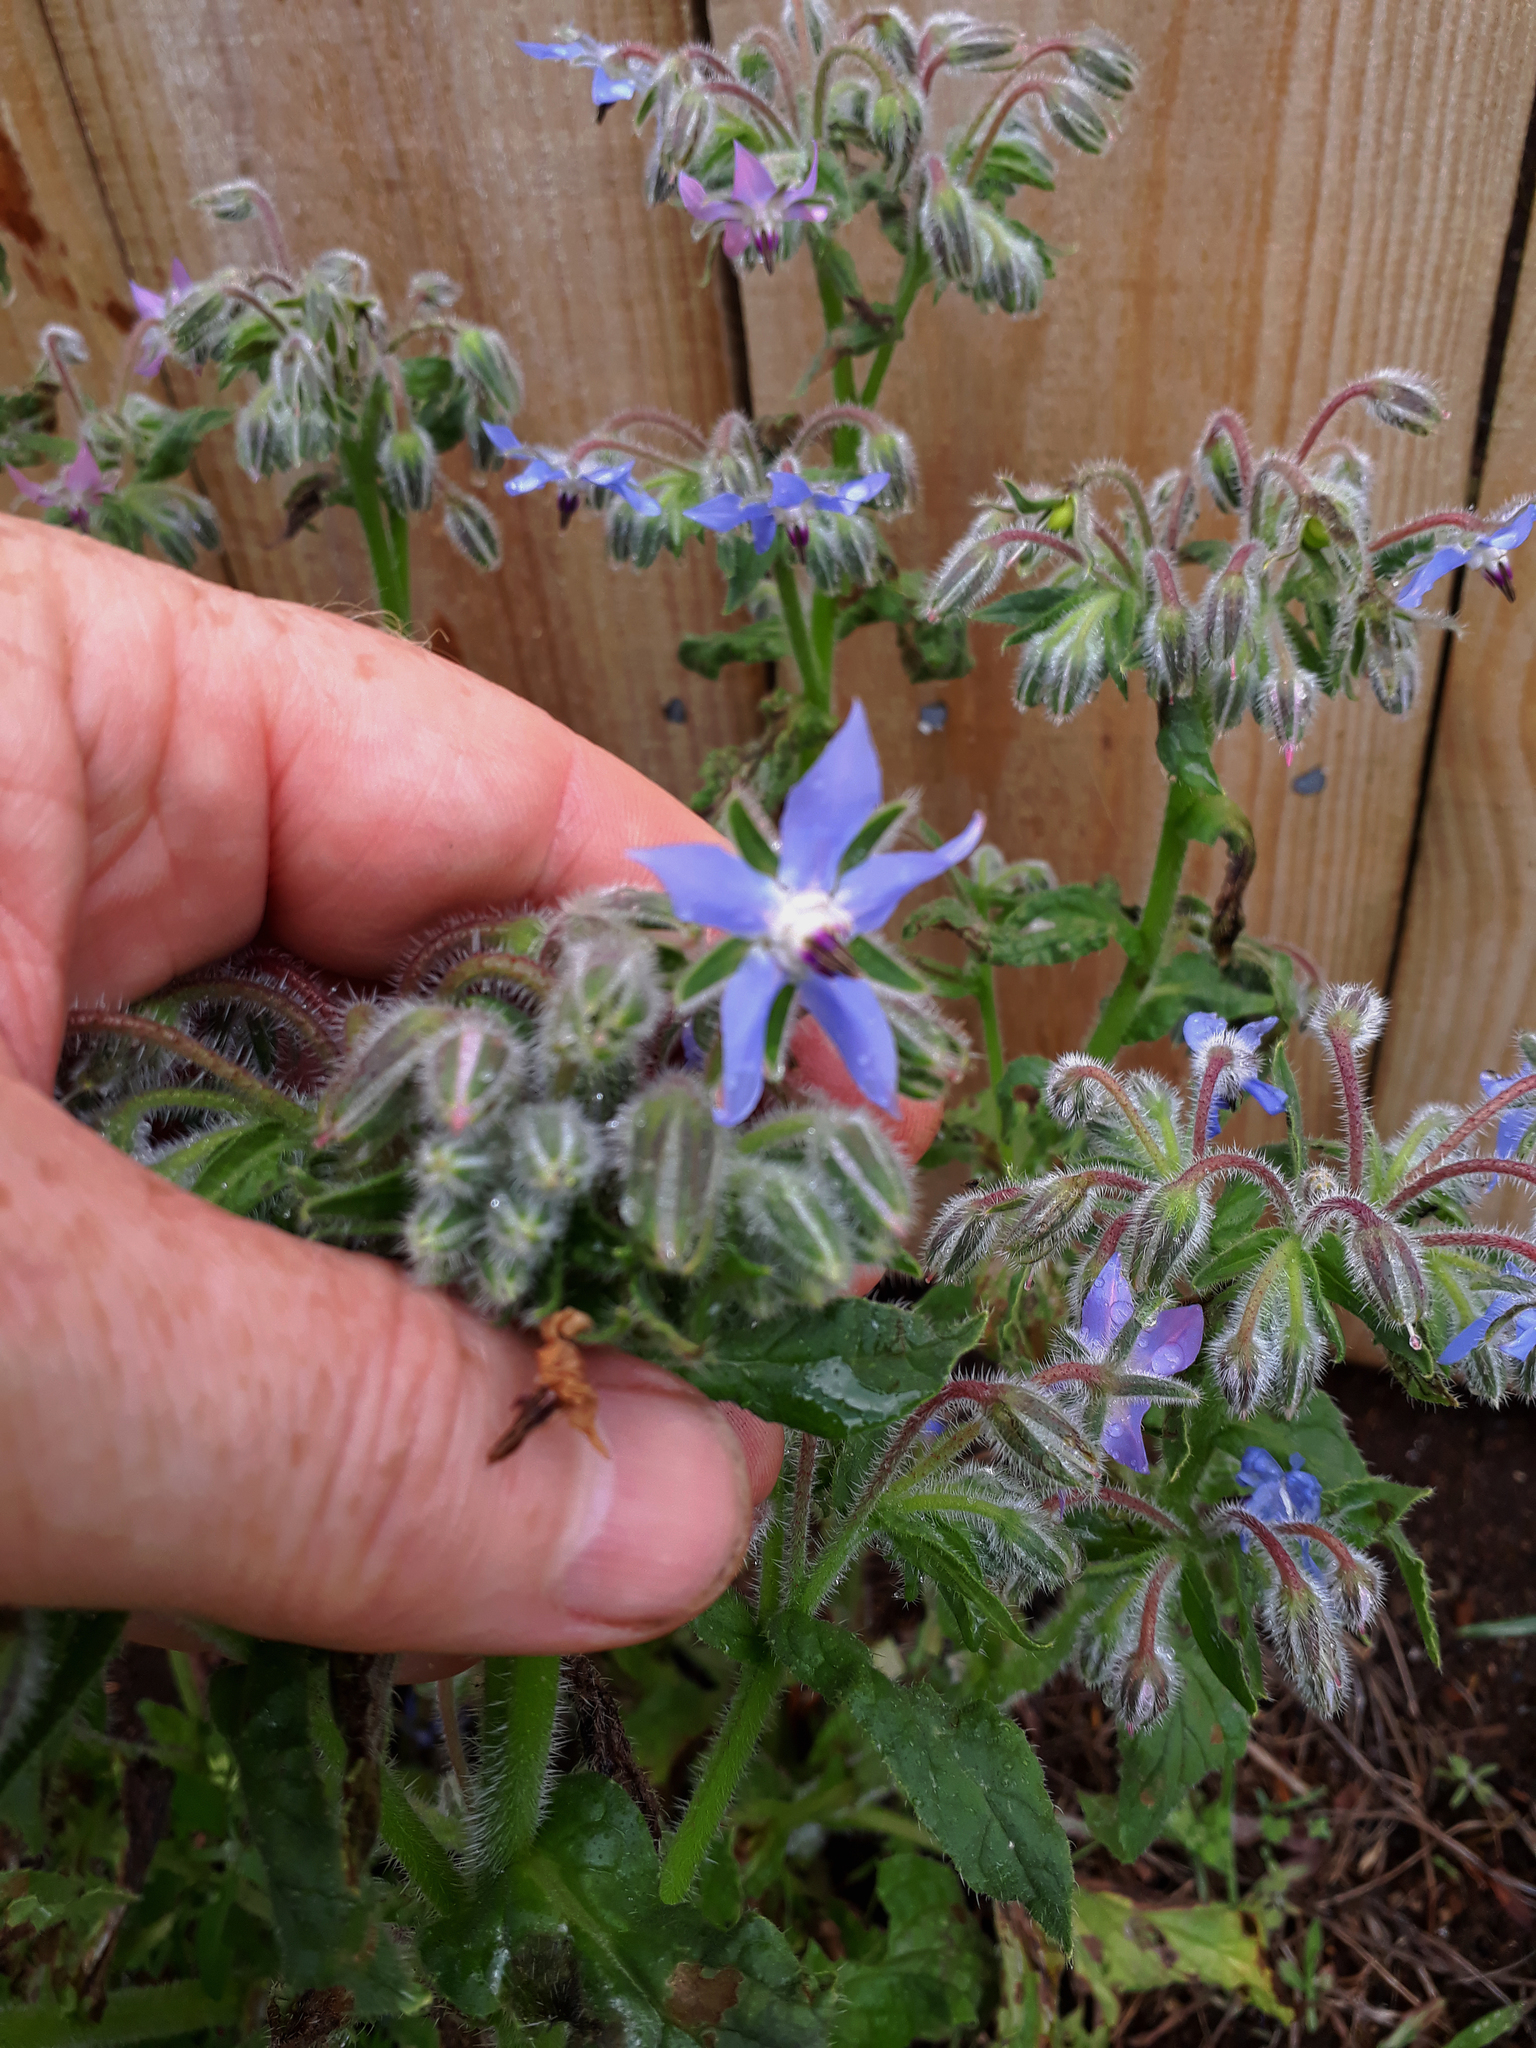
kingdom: Plantae
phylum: Tracheophyta
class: Magnoliopsida
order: Boraginales
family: Boraginaceae
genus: Borago
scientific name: Borago officinalis
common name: Borage
